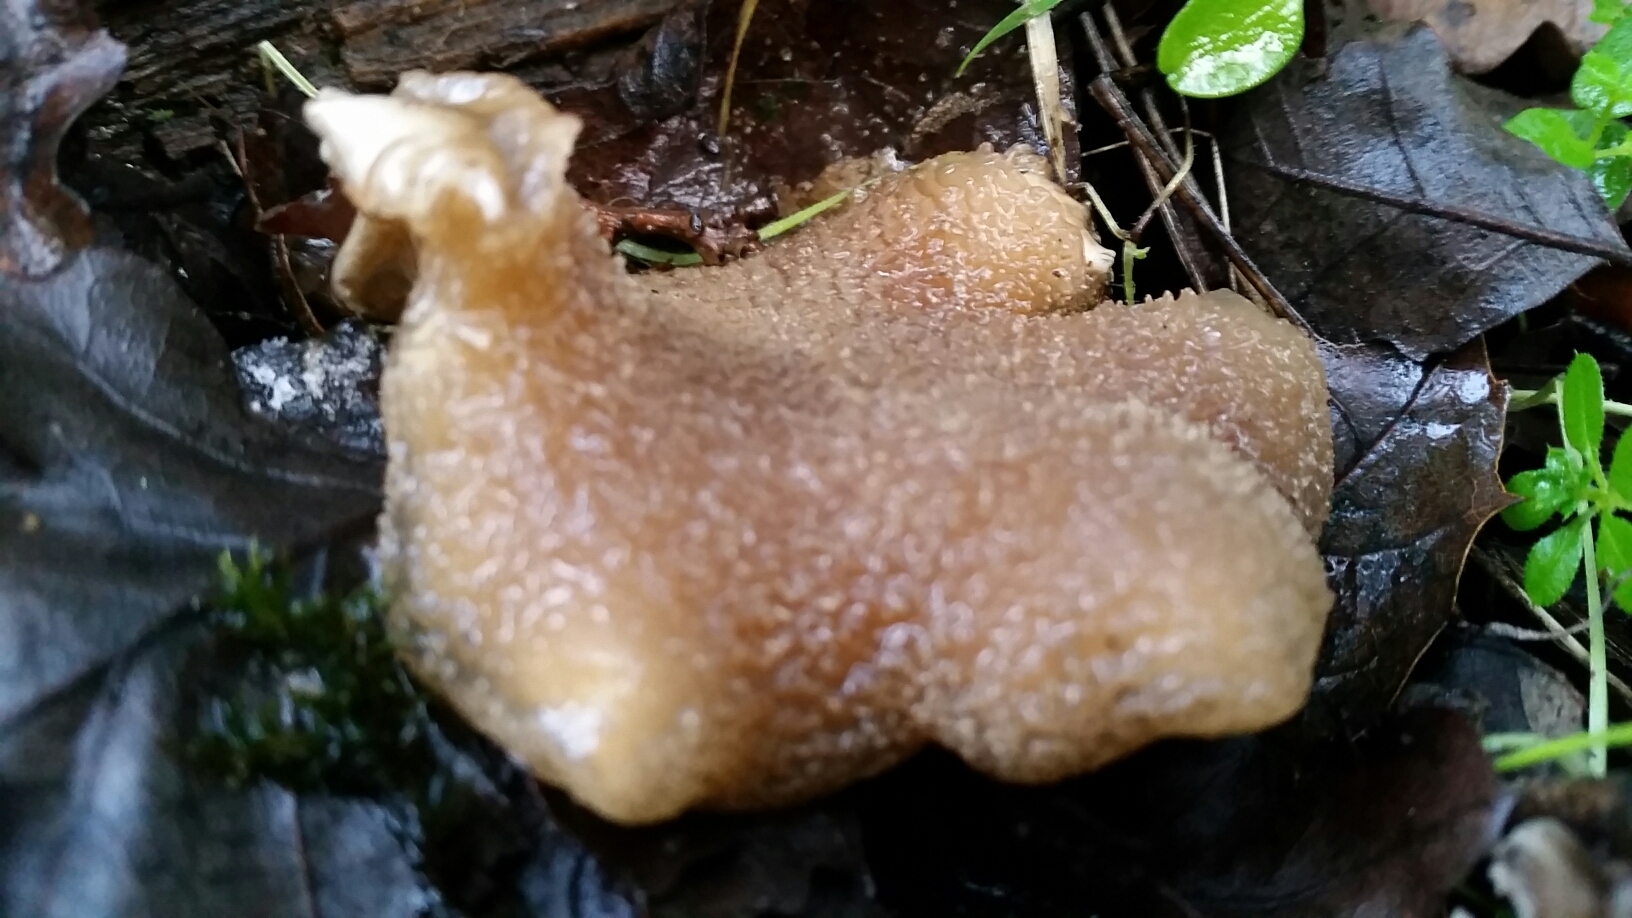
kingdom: Fungi
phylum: Basidiomycota
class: Agaricomycetes
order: Agaricales
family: Pleurotaceae
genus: Hohenbuehelia
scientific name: Hohenbuehelia valesiaca
